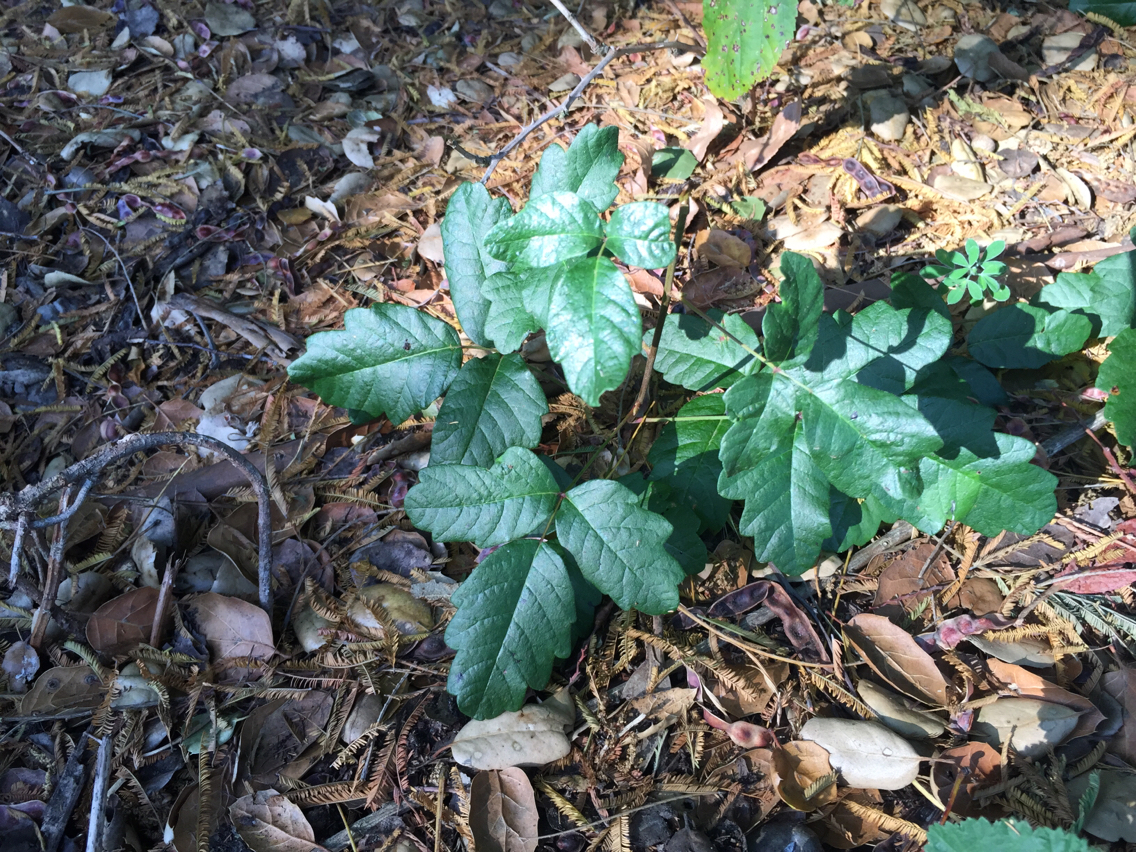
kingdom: Plantae
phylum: Tracheophyta
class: Magnoliopsida
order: Sapindales
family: Anacardiaceae
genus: Toxicodendron
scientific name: Toxicodendron diversilobum
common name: Pacific poison-oak
